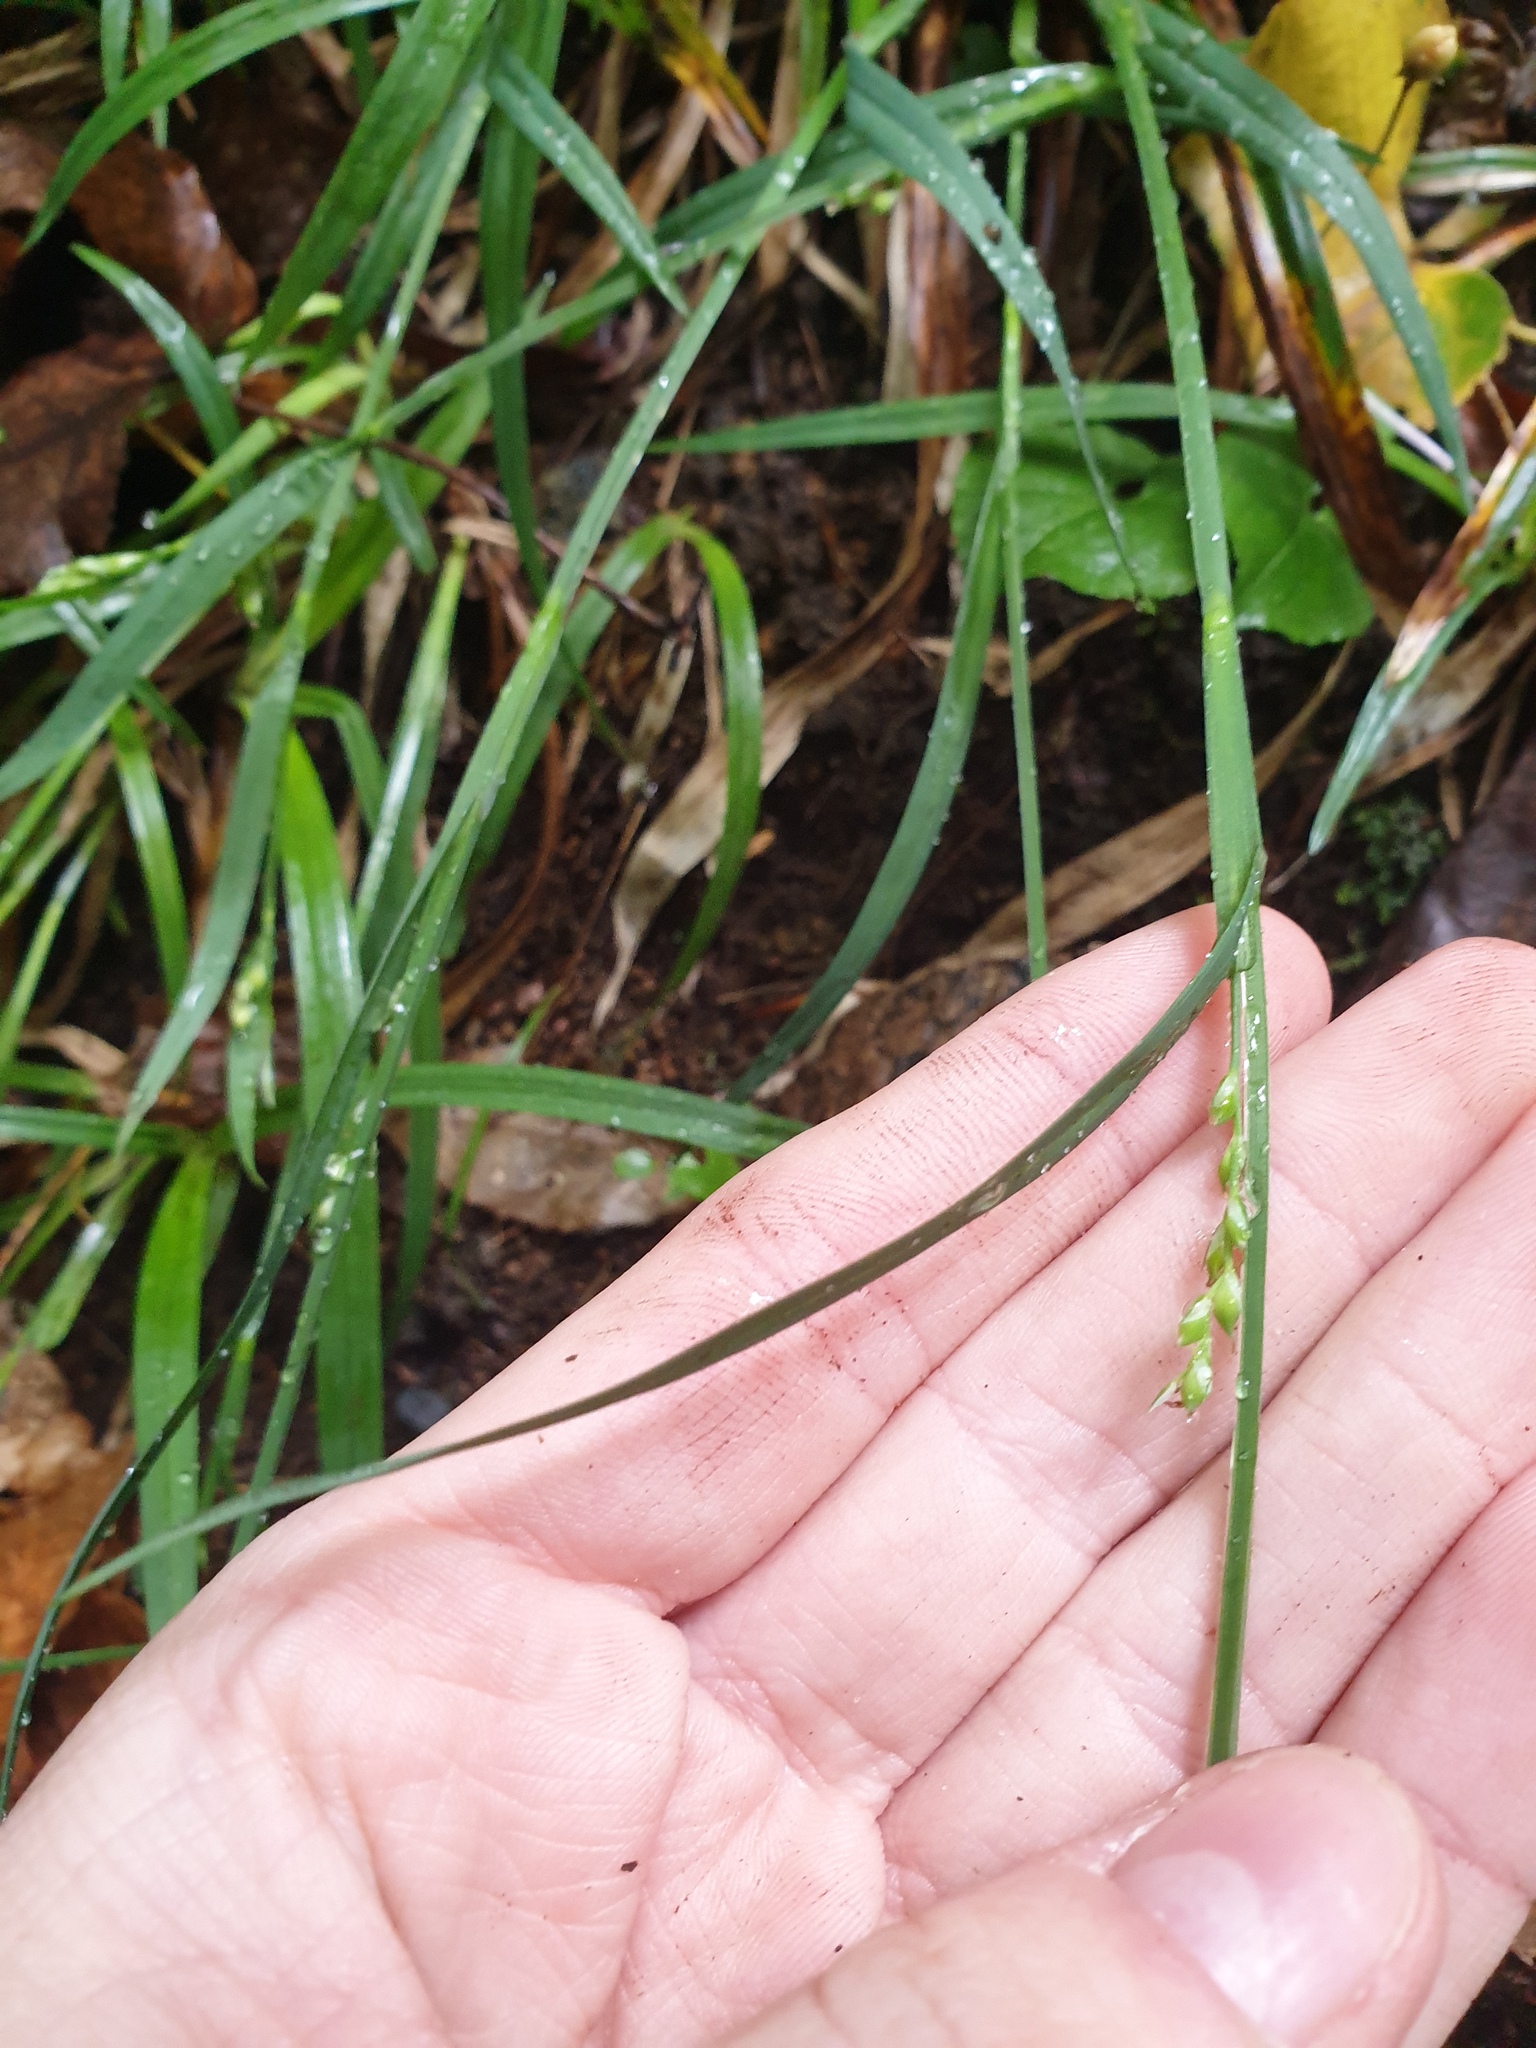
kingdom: Plantae
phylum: Tracheophyta
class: Liliopsida
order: Poales
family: Cyperaceae
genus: Carex
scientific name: Carex laxiflora
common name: Beech wood sedge
